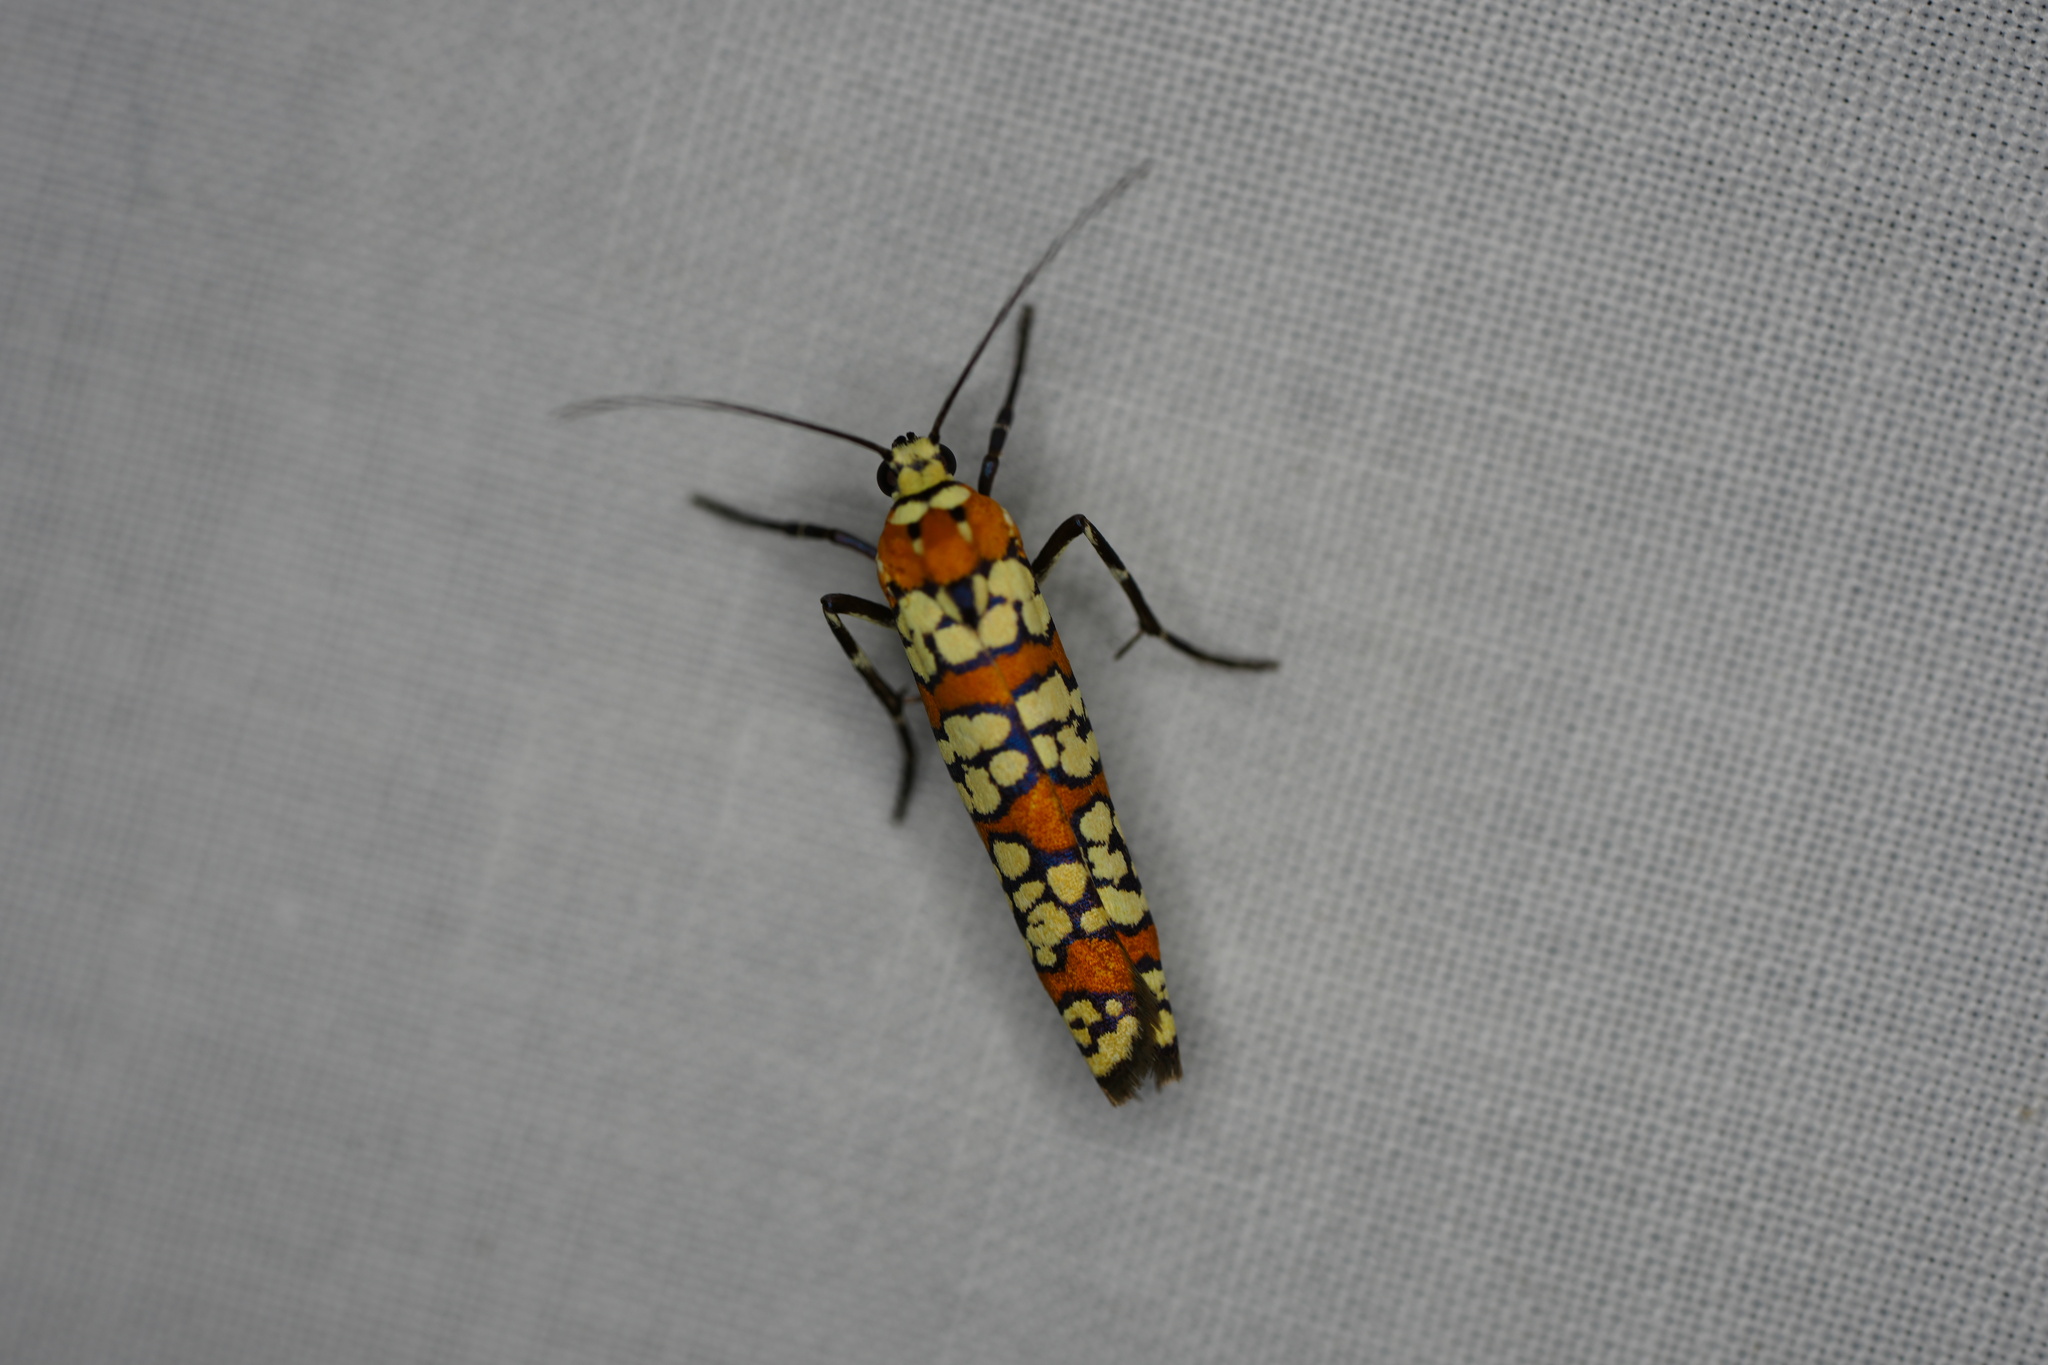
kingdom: Animalia
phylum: Arthropoda
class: Insecta
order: Lepidoptera
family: Attevidae
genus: Atteva
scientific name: Atteva punctella
